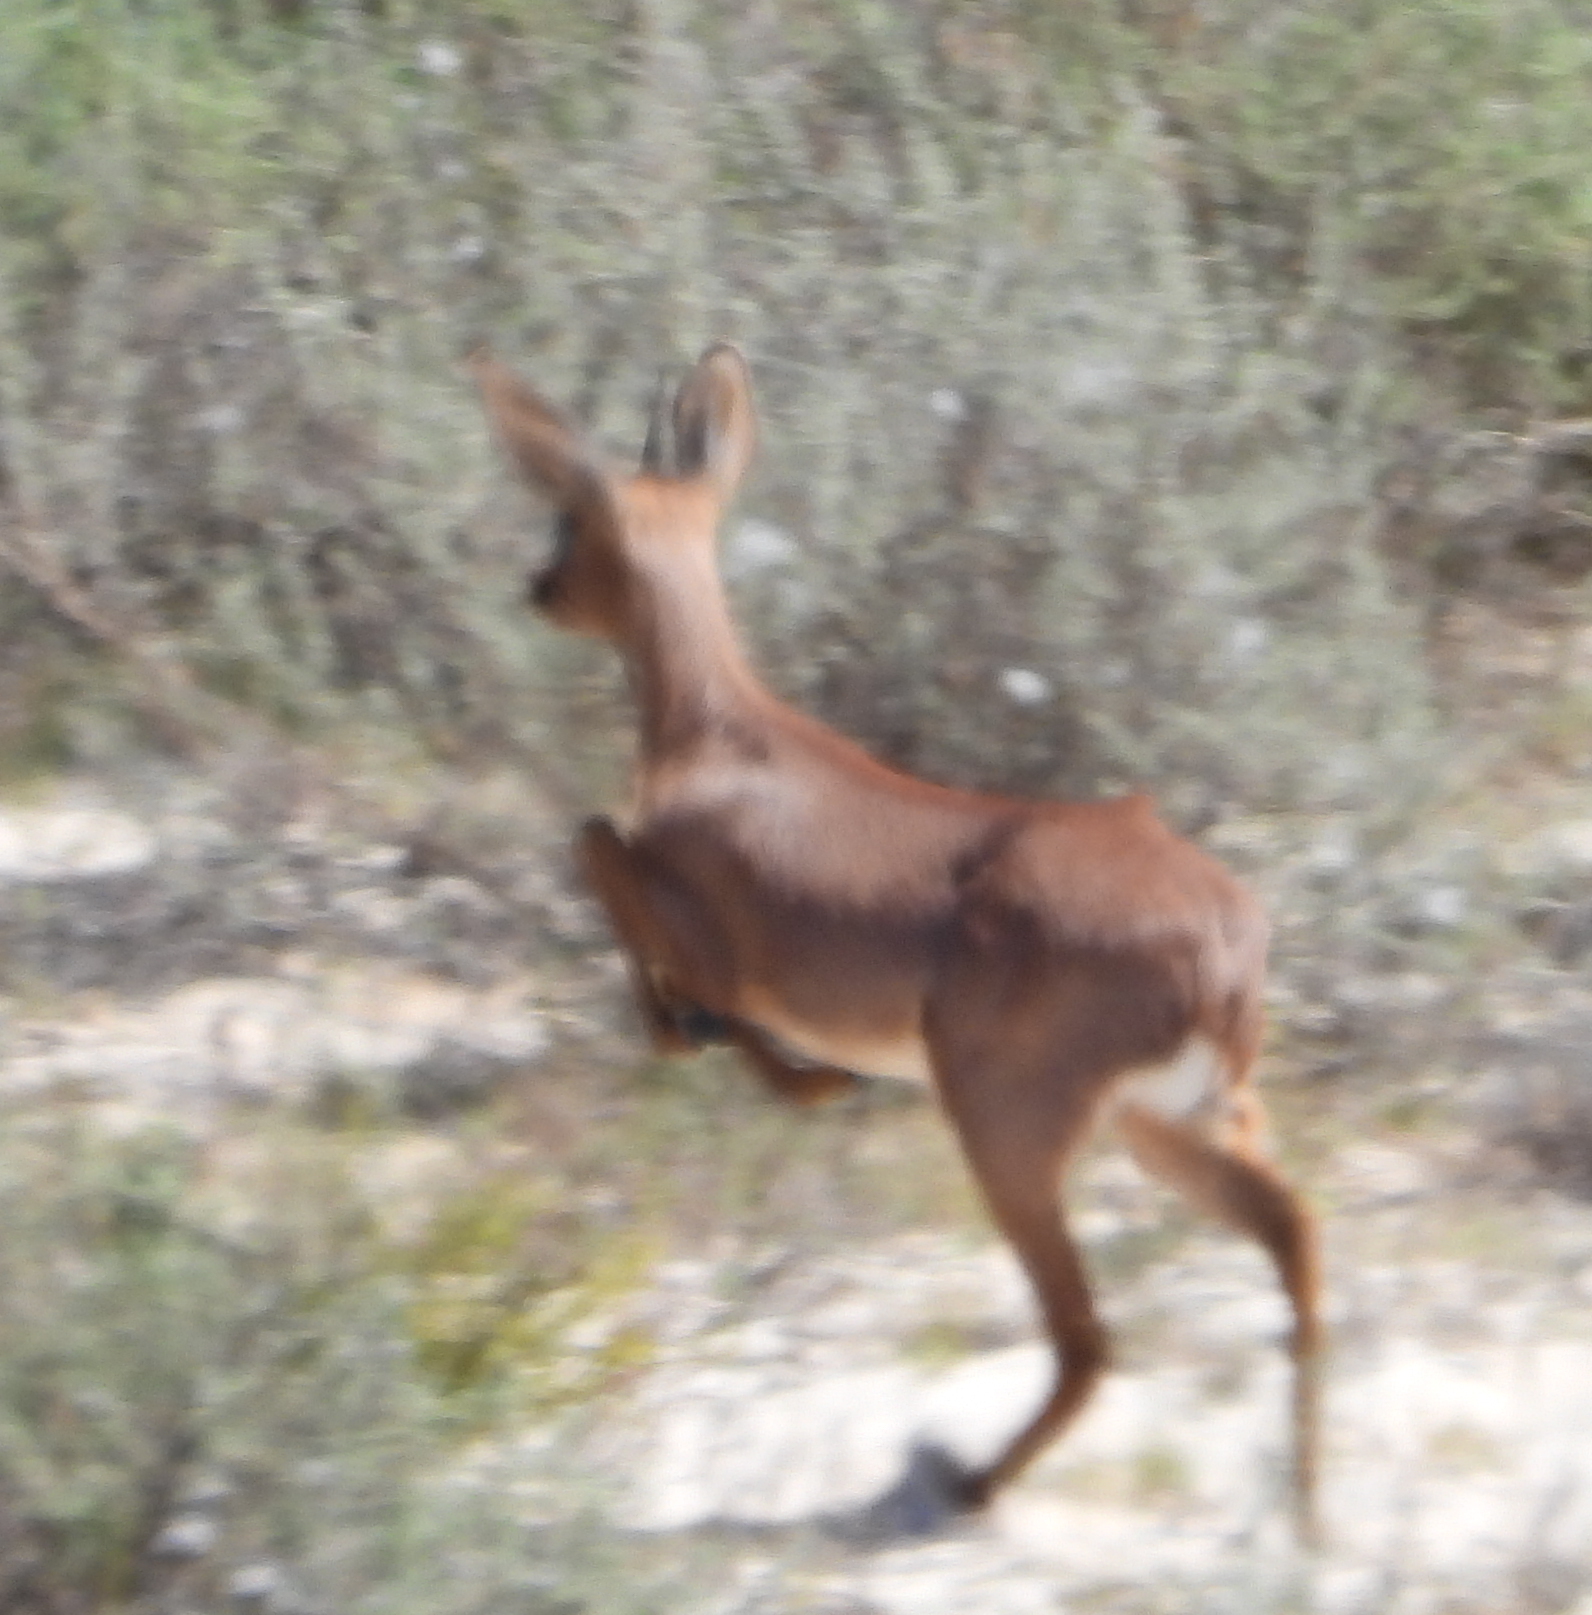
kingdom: Animalia
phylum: Chordata
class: Mammalia
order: Artiodactyla
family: Bovidae
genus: Raphicerus
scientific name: Raphicerus campestris
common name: Steenbok
